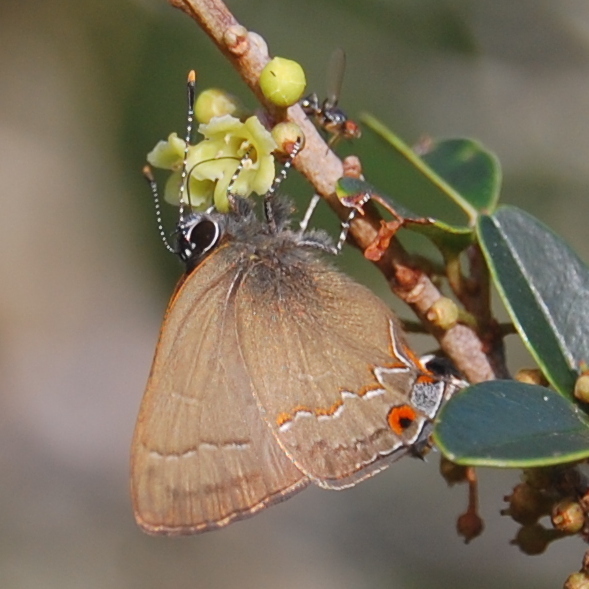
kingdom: Animalia
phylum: Arthropoda
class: Insecta
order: Lepidoptera
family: Lycaenidae
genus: Arzecla
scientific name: Arzecla
